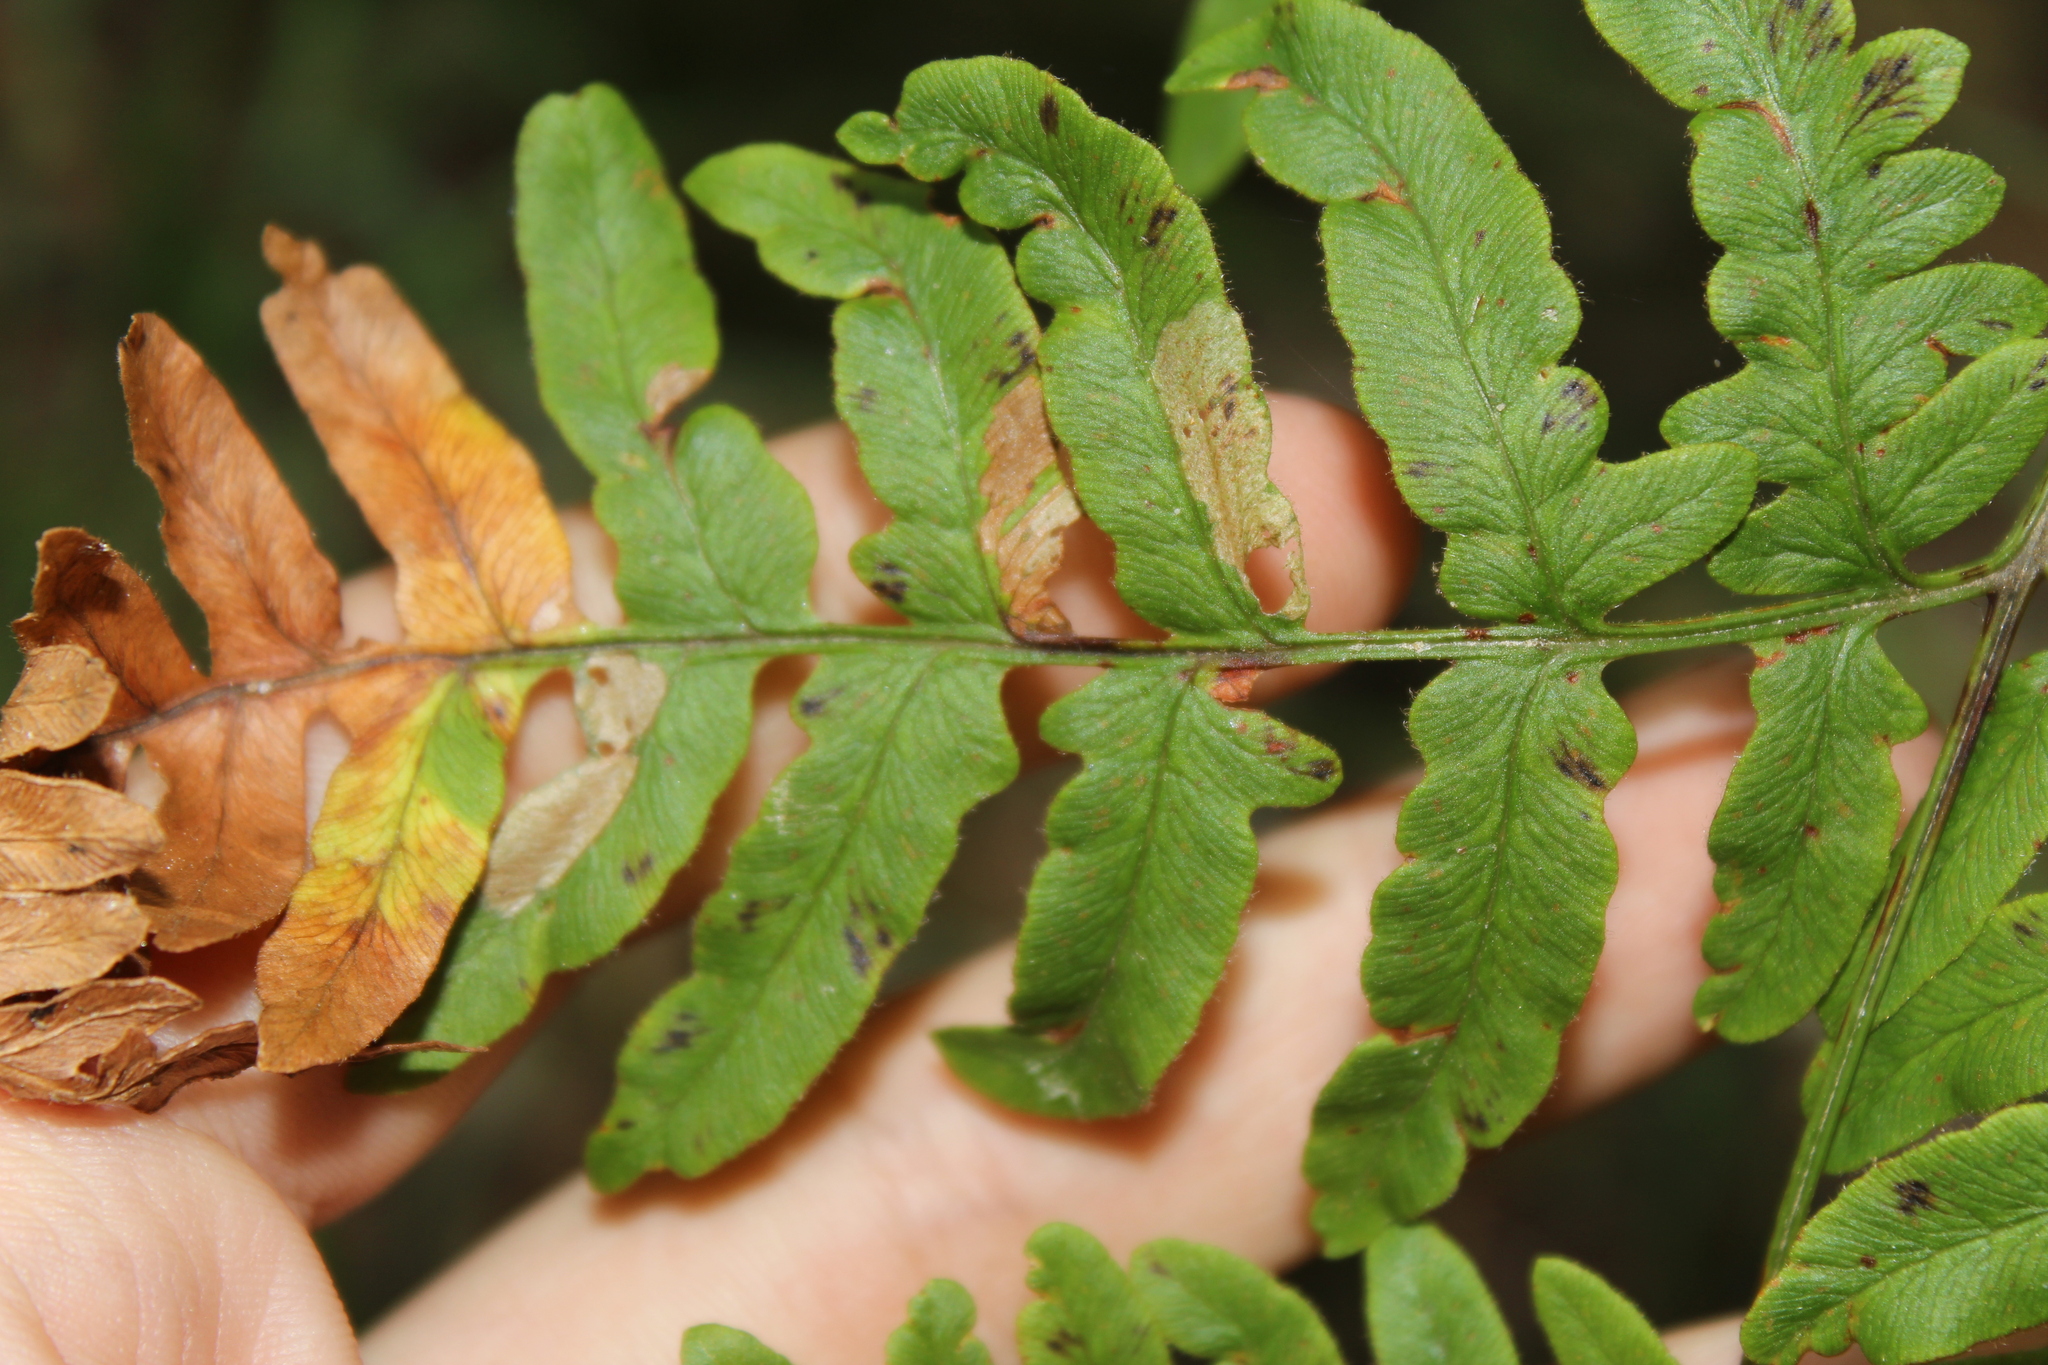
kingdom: Plantae
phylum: Tracheophyta
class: Polypodiopsida
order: Polypodiales
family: Dennstaedtiaceae
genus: Pteridium
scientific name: Pteridium aquilinum
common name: Bracken
